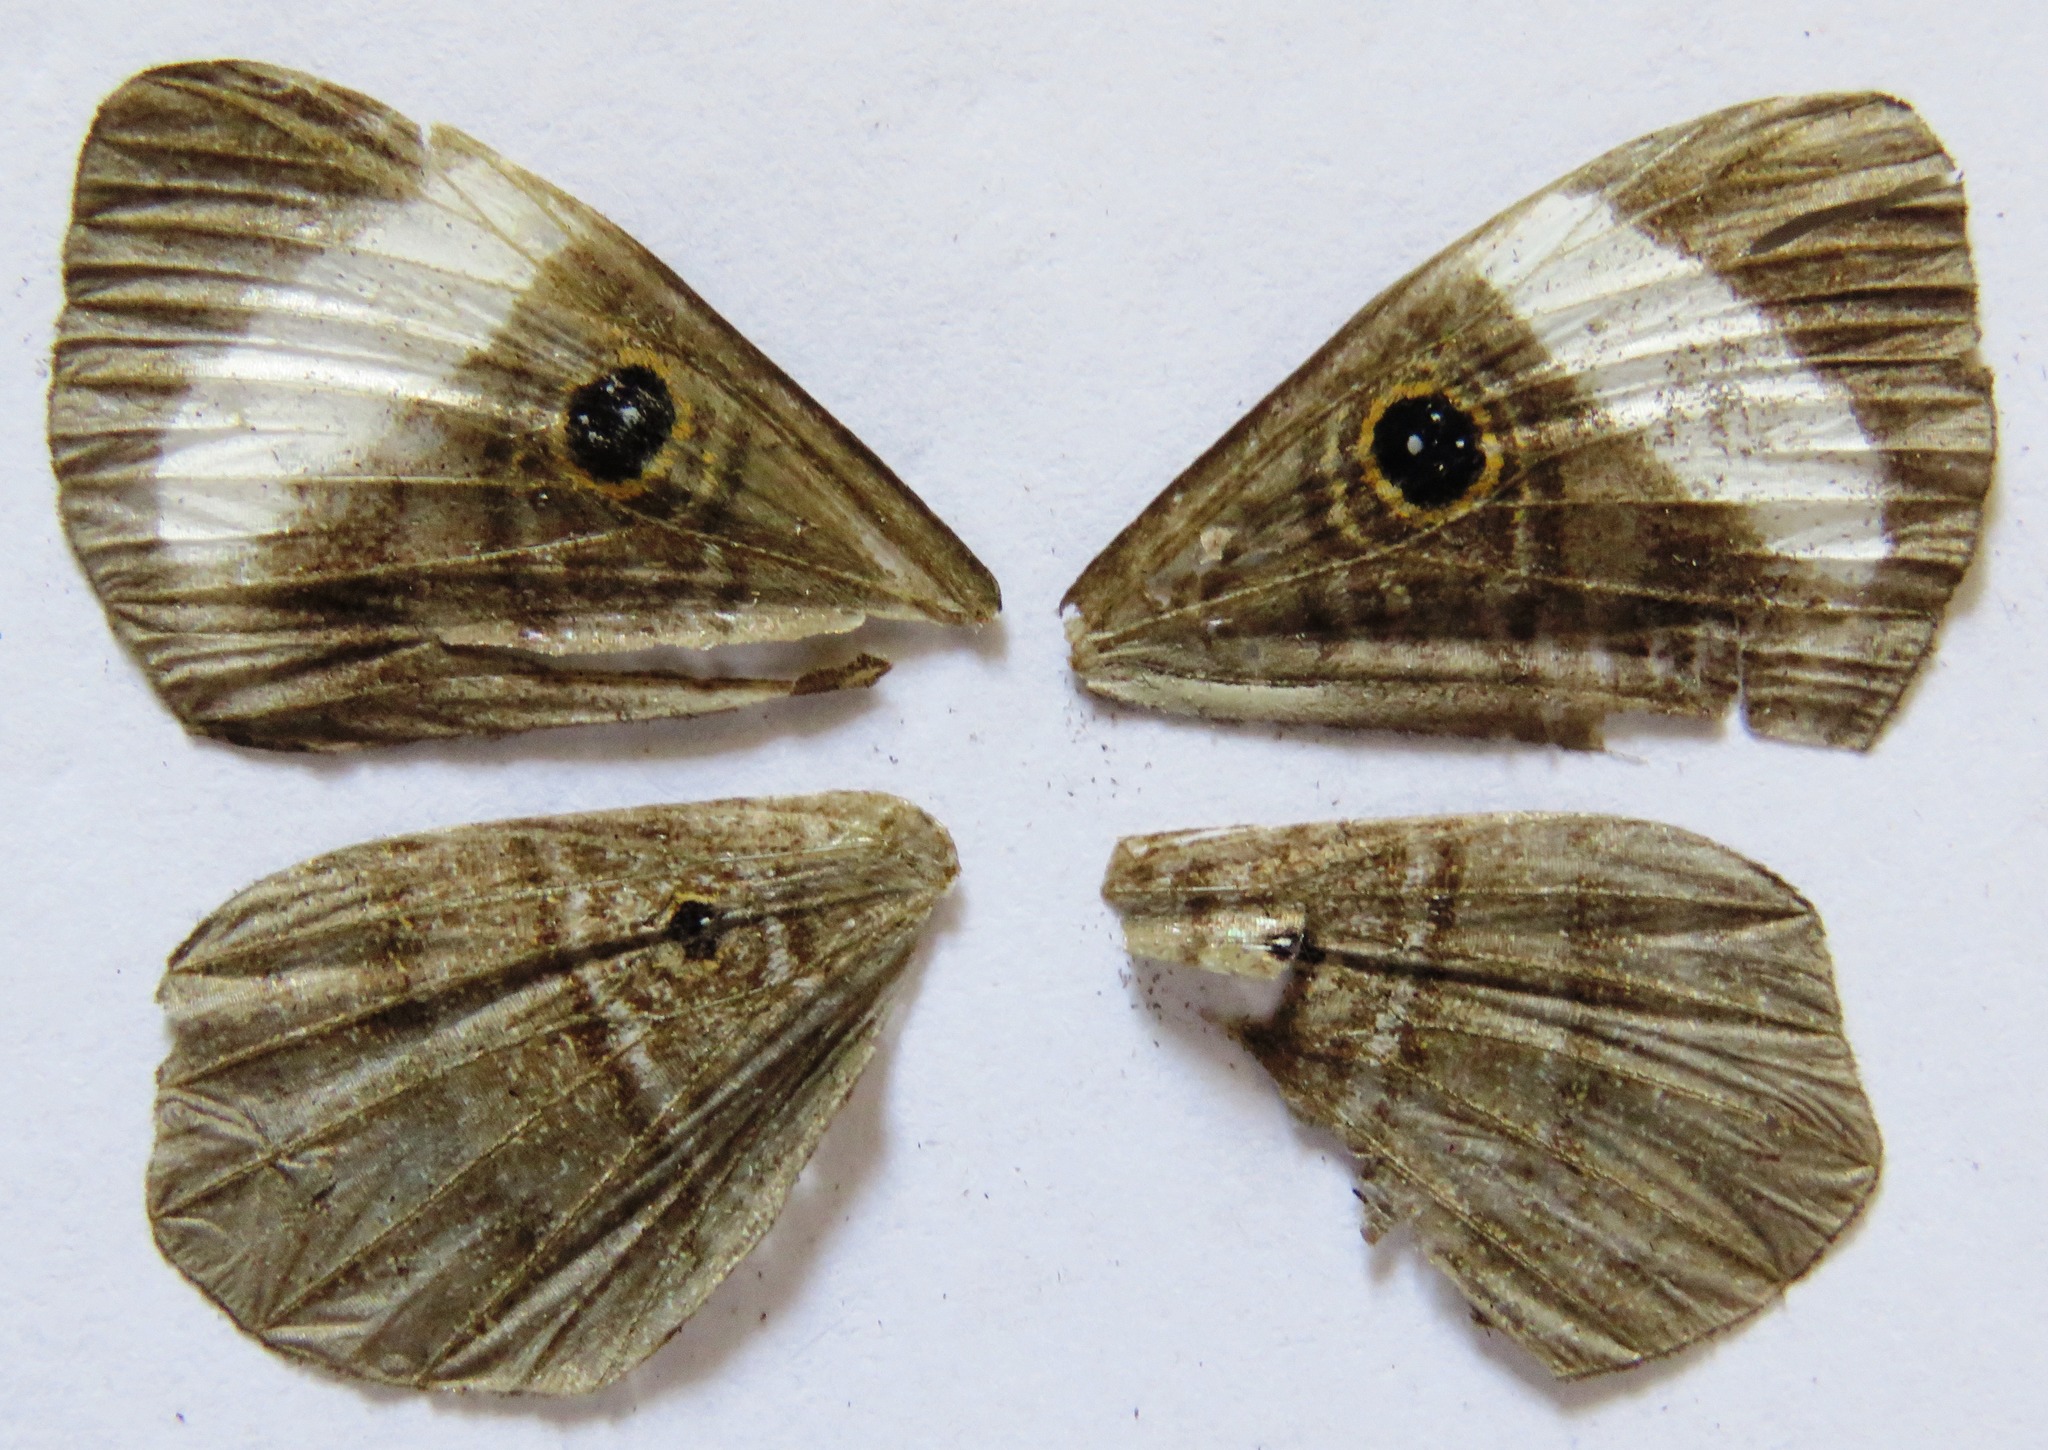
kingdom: Animalia
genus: Mesosemia
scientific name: Mesosemia asa
